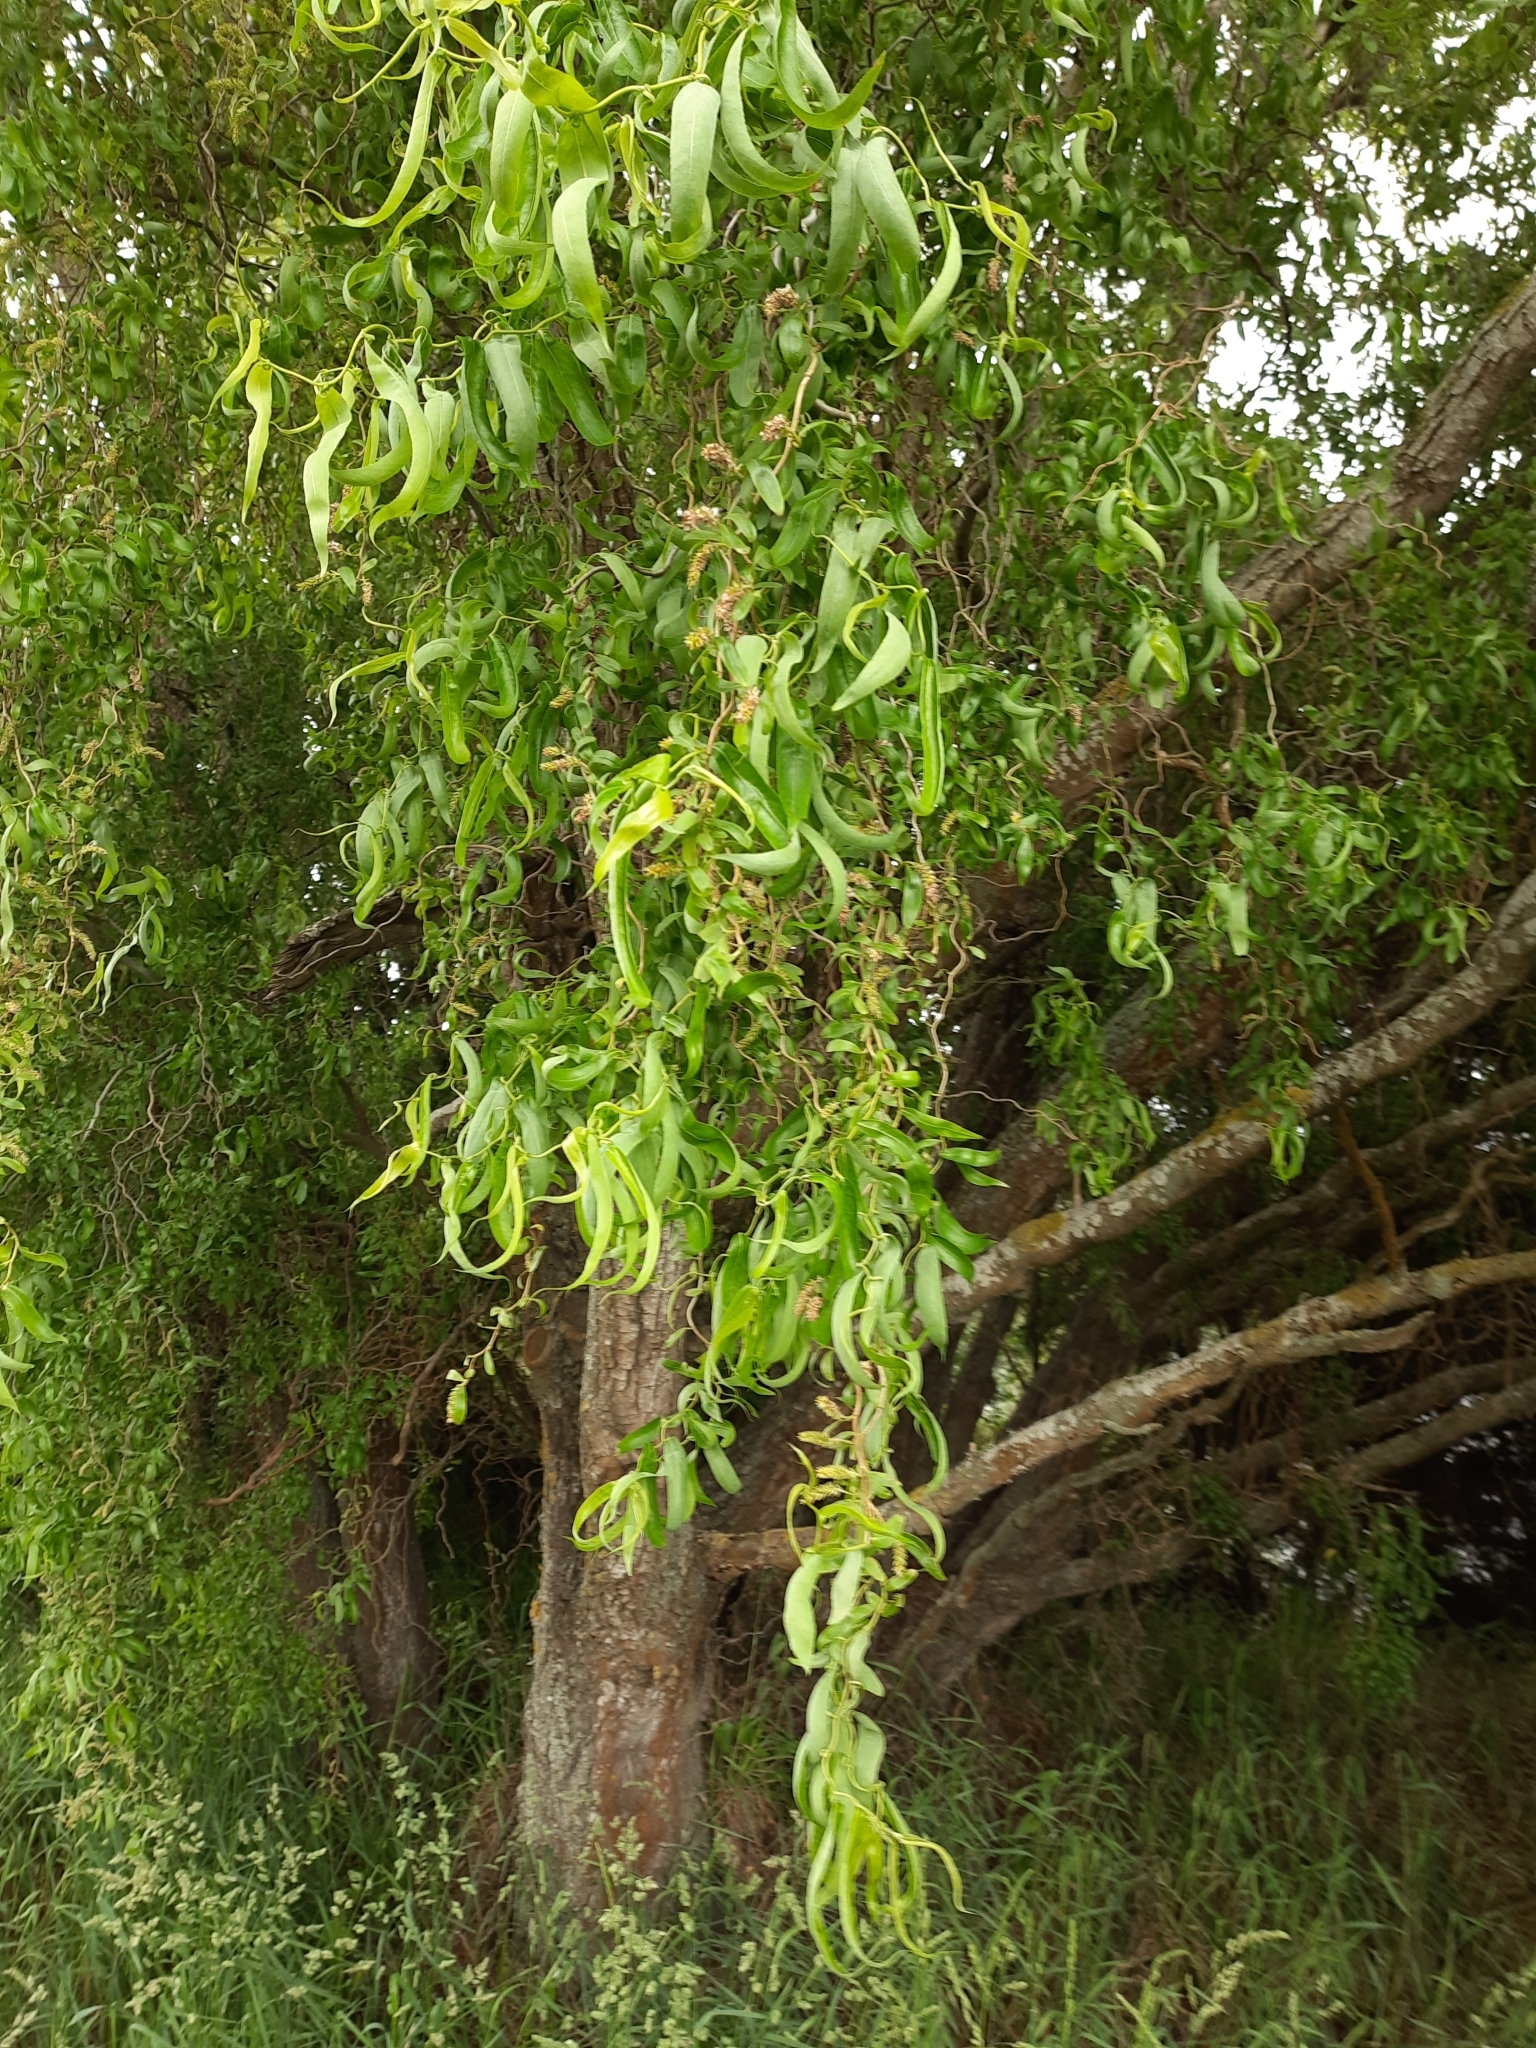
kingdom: Plantae
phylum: Tracheophyta
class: Magnoliopsida
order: Malpighiales
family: Salicaceae
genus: Salix
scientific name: Salix
